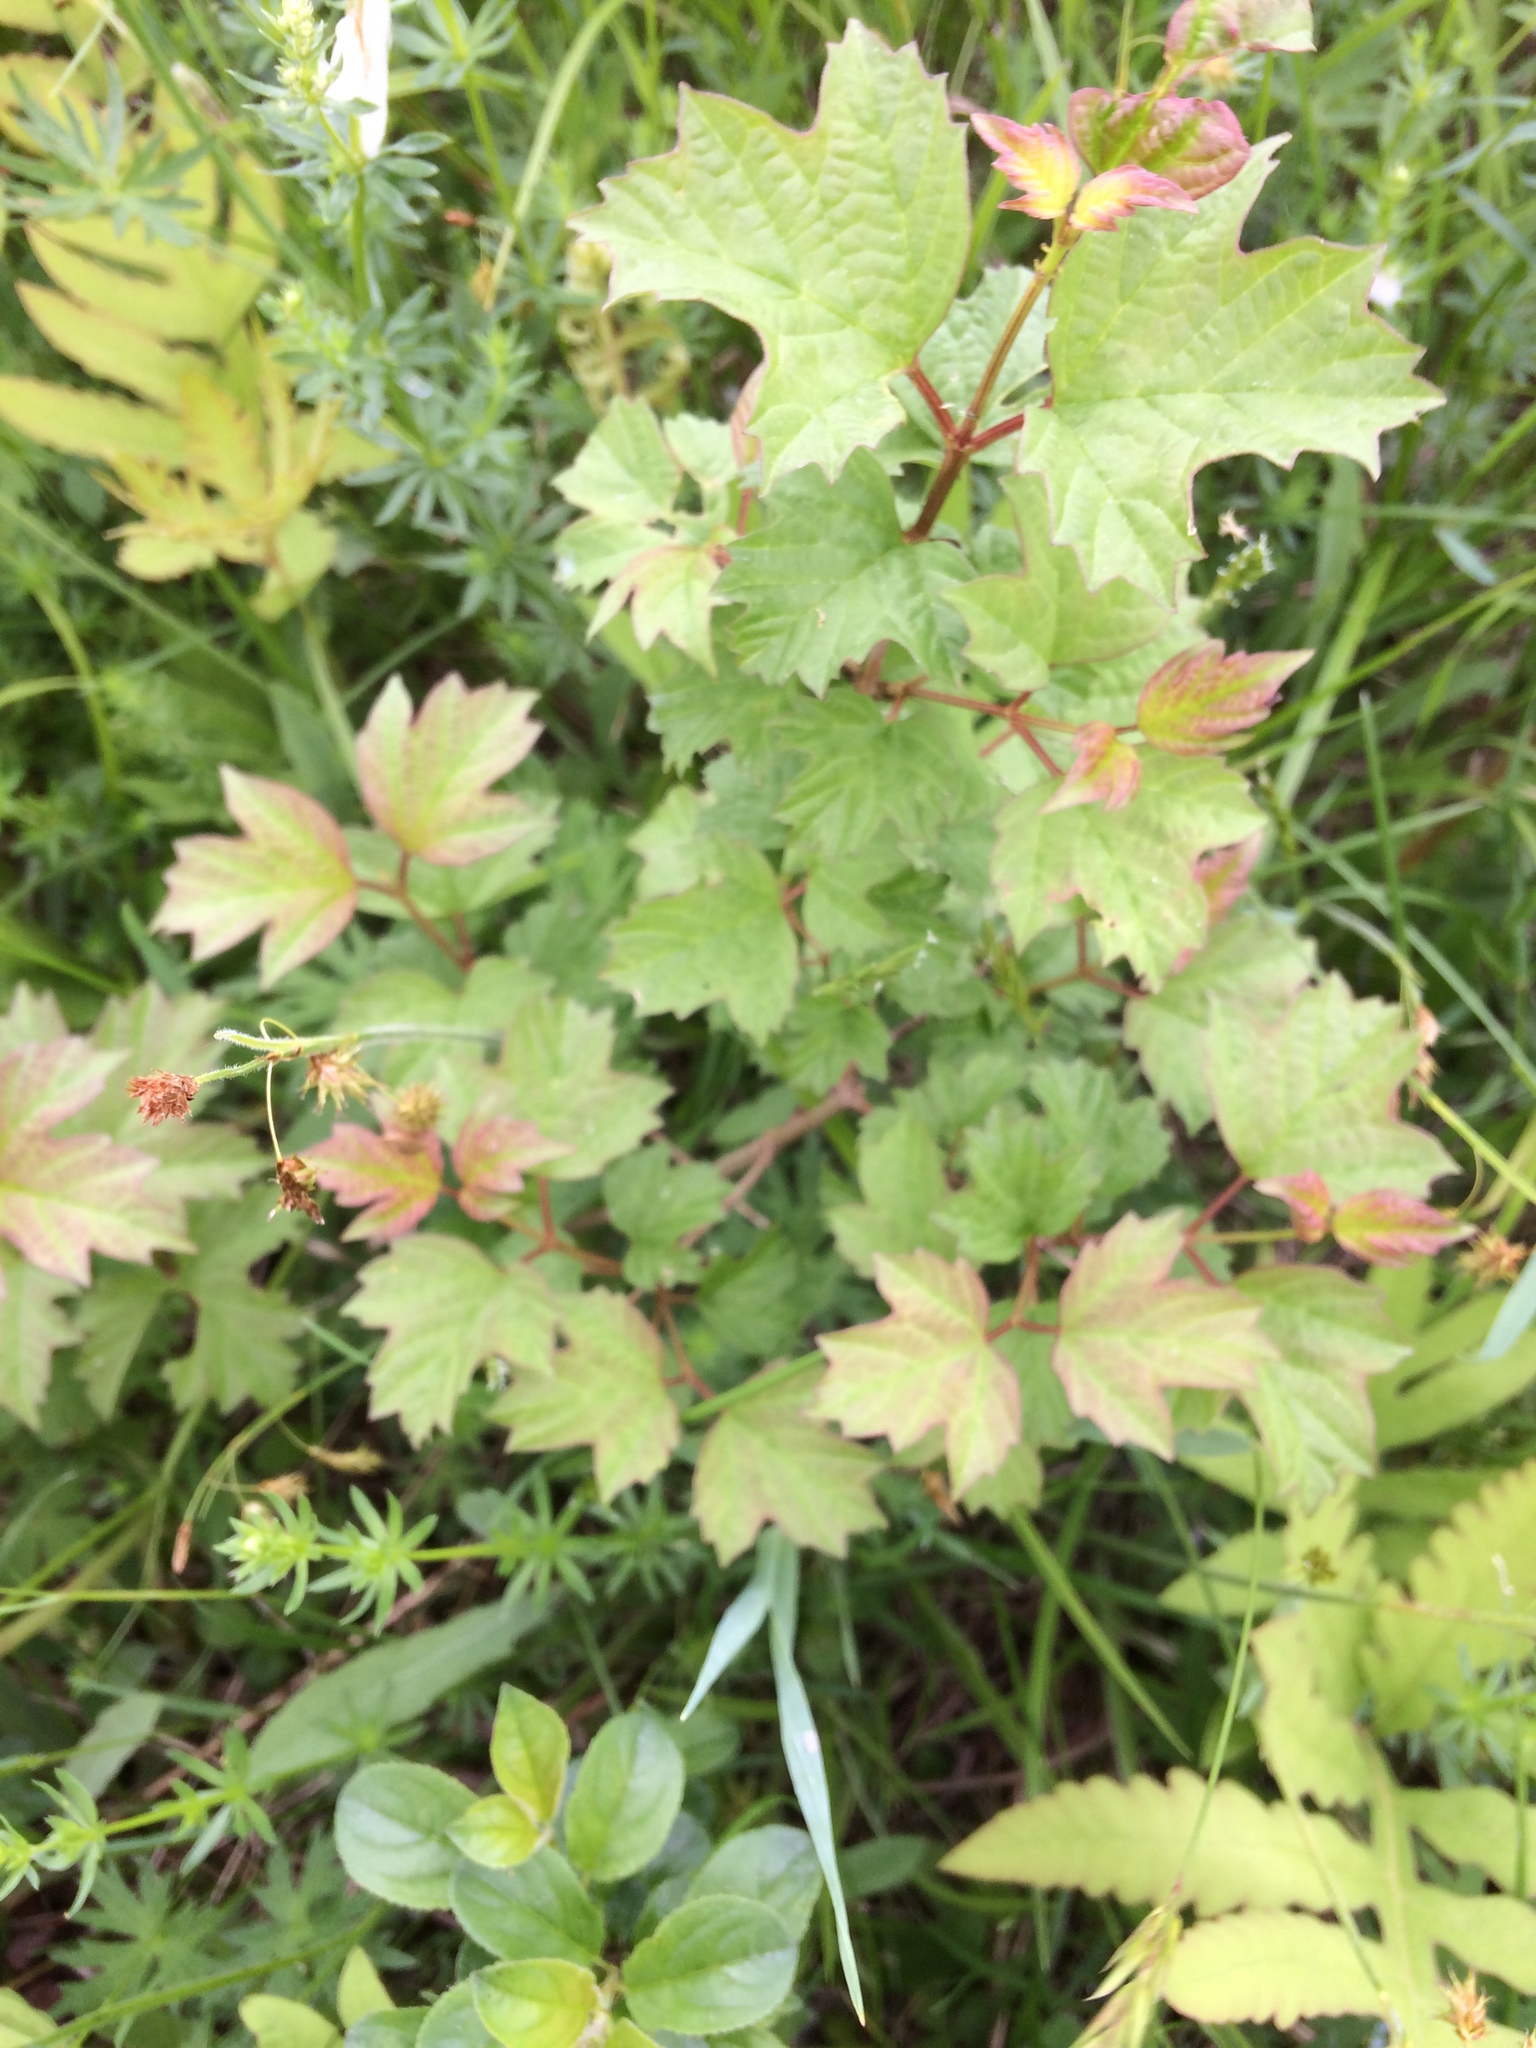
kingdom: Plantae
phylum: Tracheophyta
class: Magnoliopsida
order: Dipsacales
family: Viburnaceae
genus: Viburnum
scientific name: Viburnum opulus
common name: Guelder-rose
